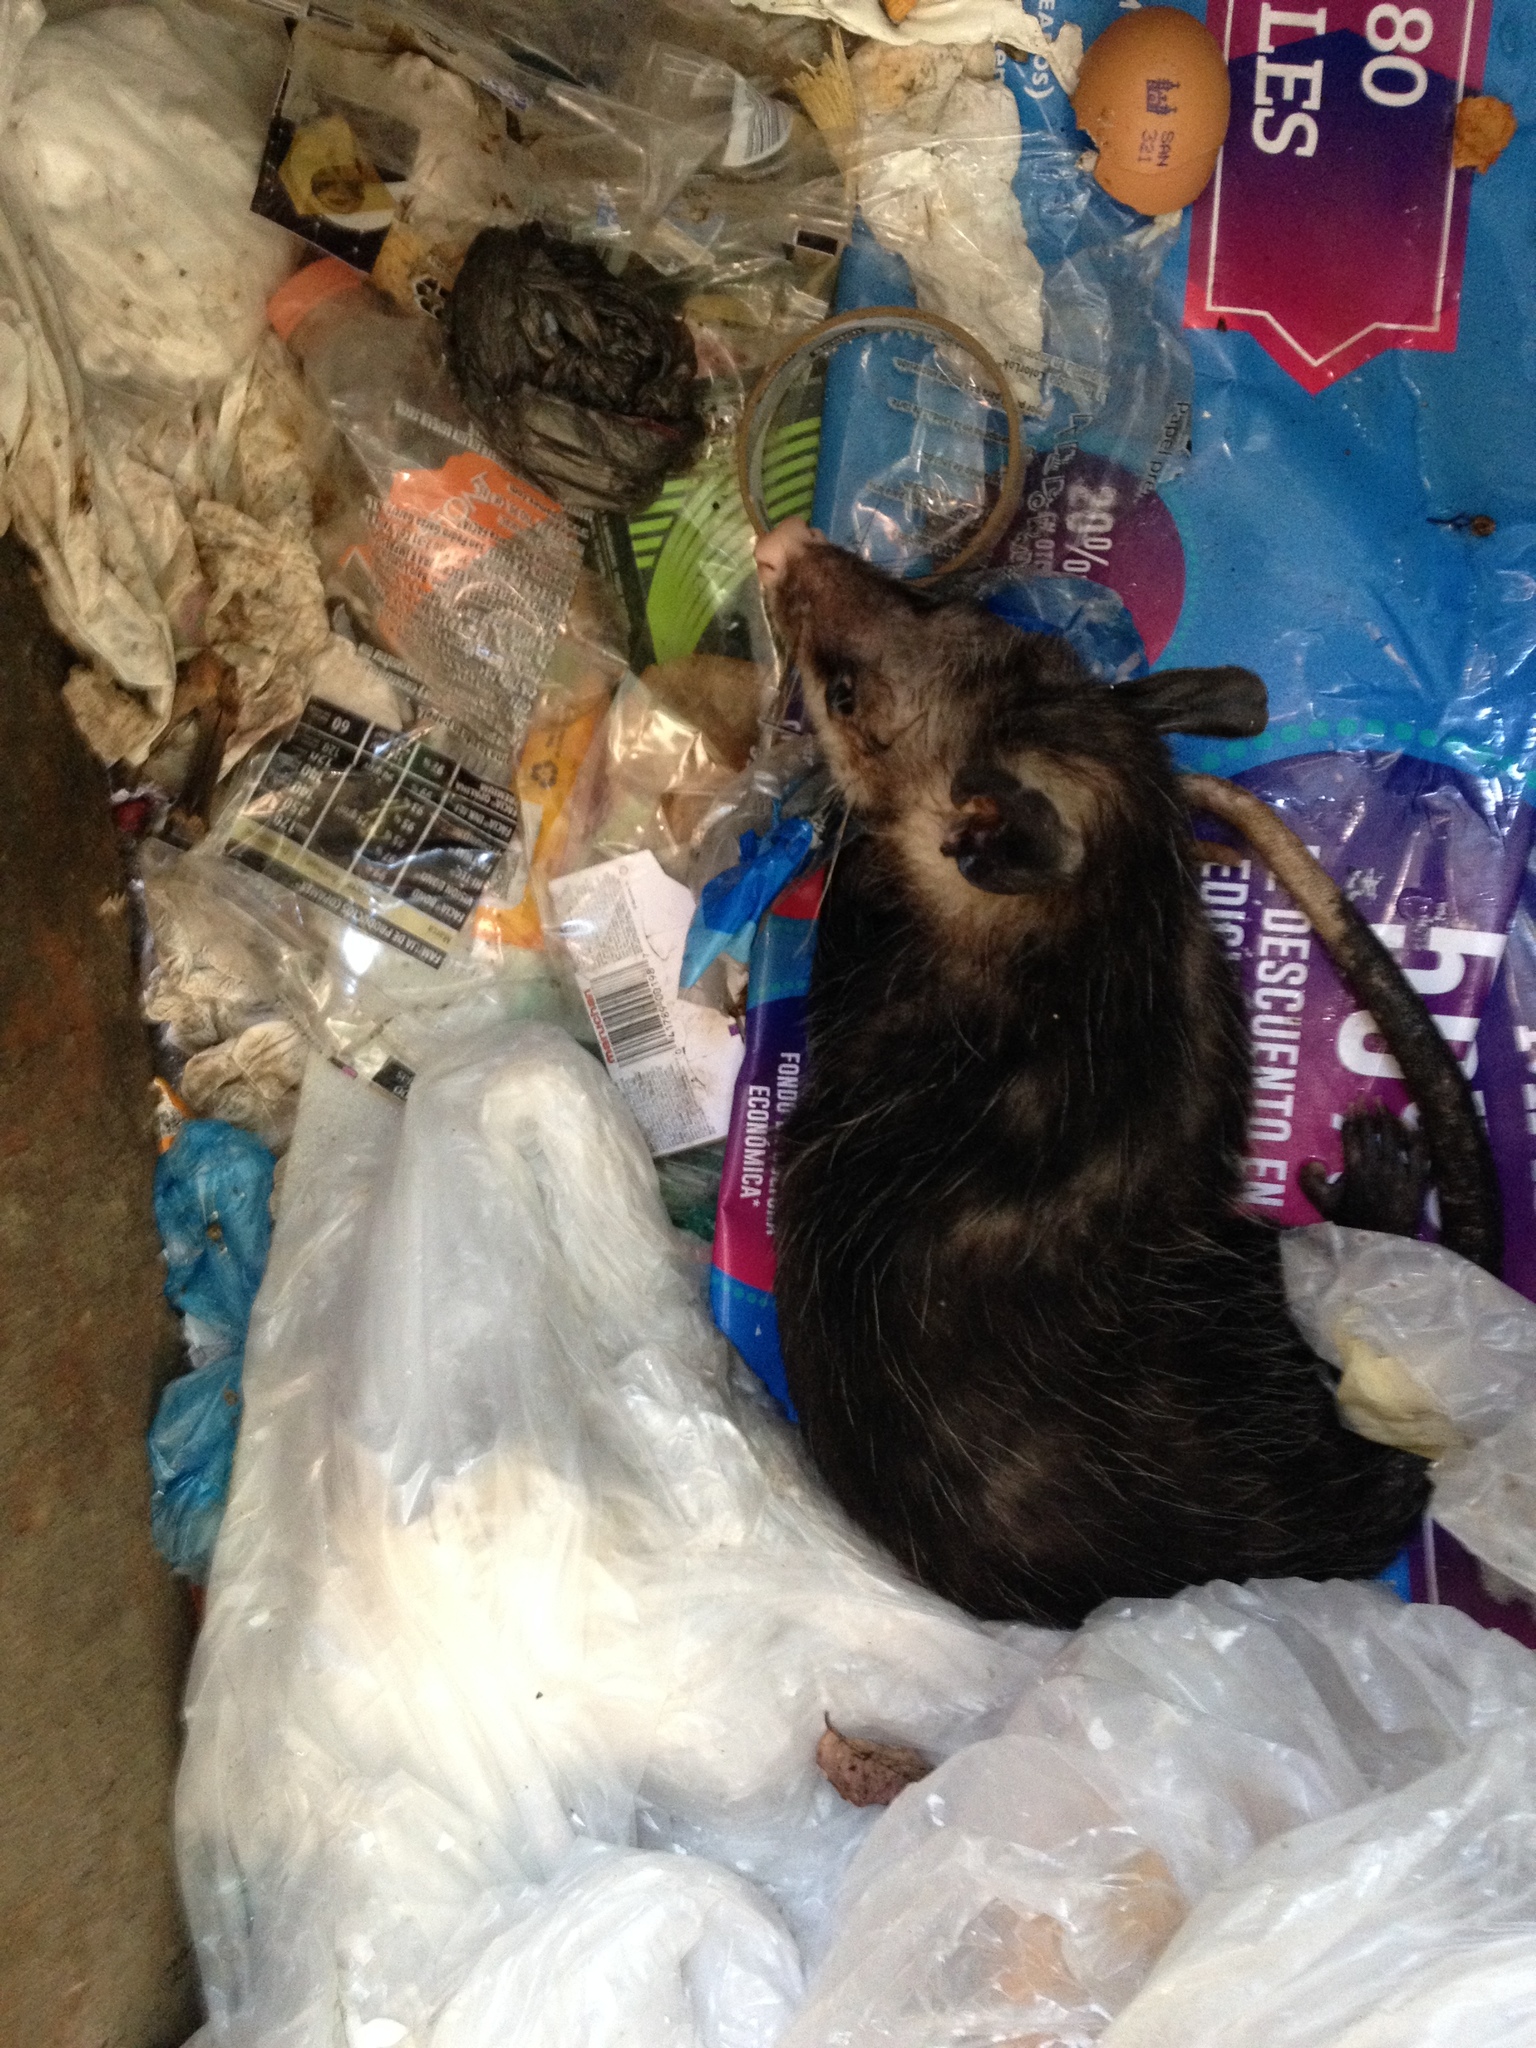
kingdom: Animalia
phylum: Chordata
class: Mammalia
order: Didelphimorphia
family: Didelphidae
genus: Didelphis
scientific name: Didelphis virginiana
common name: Virginia opossum
